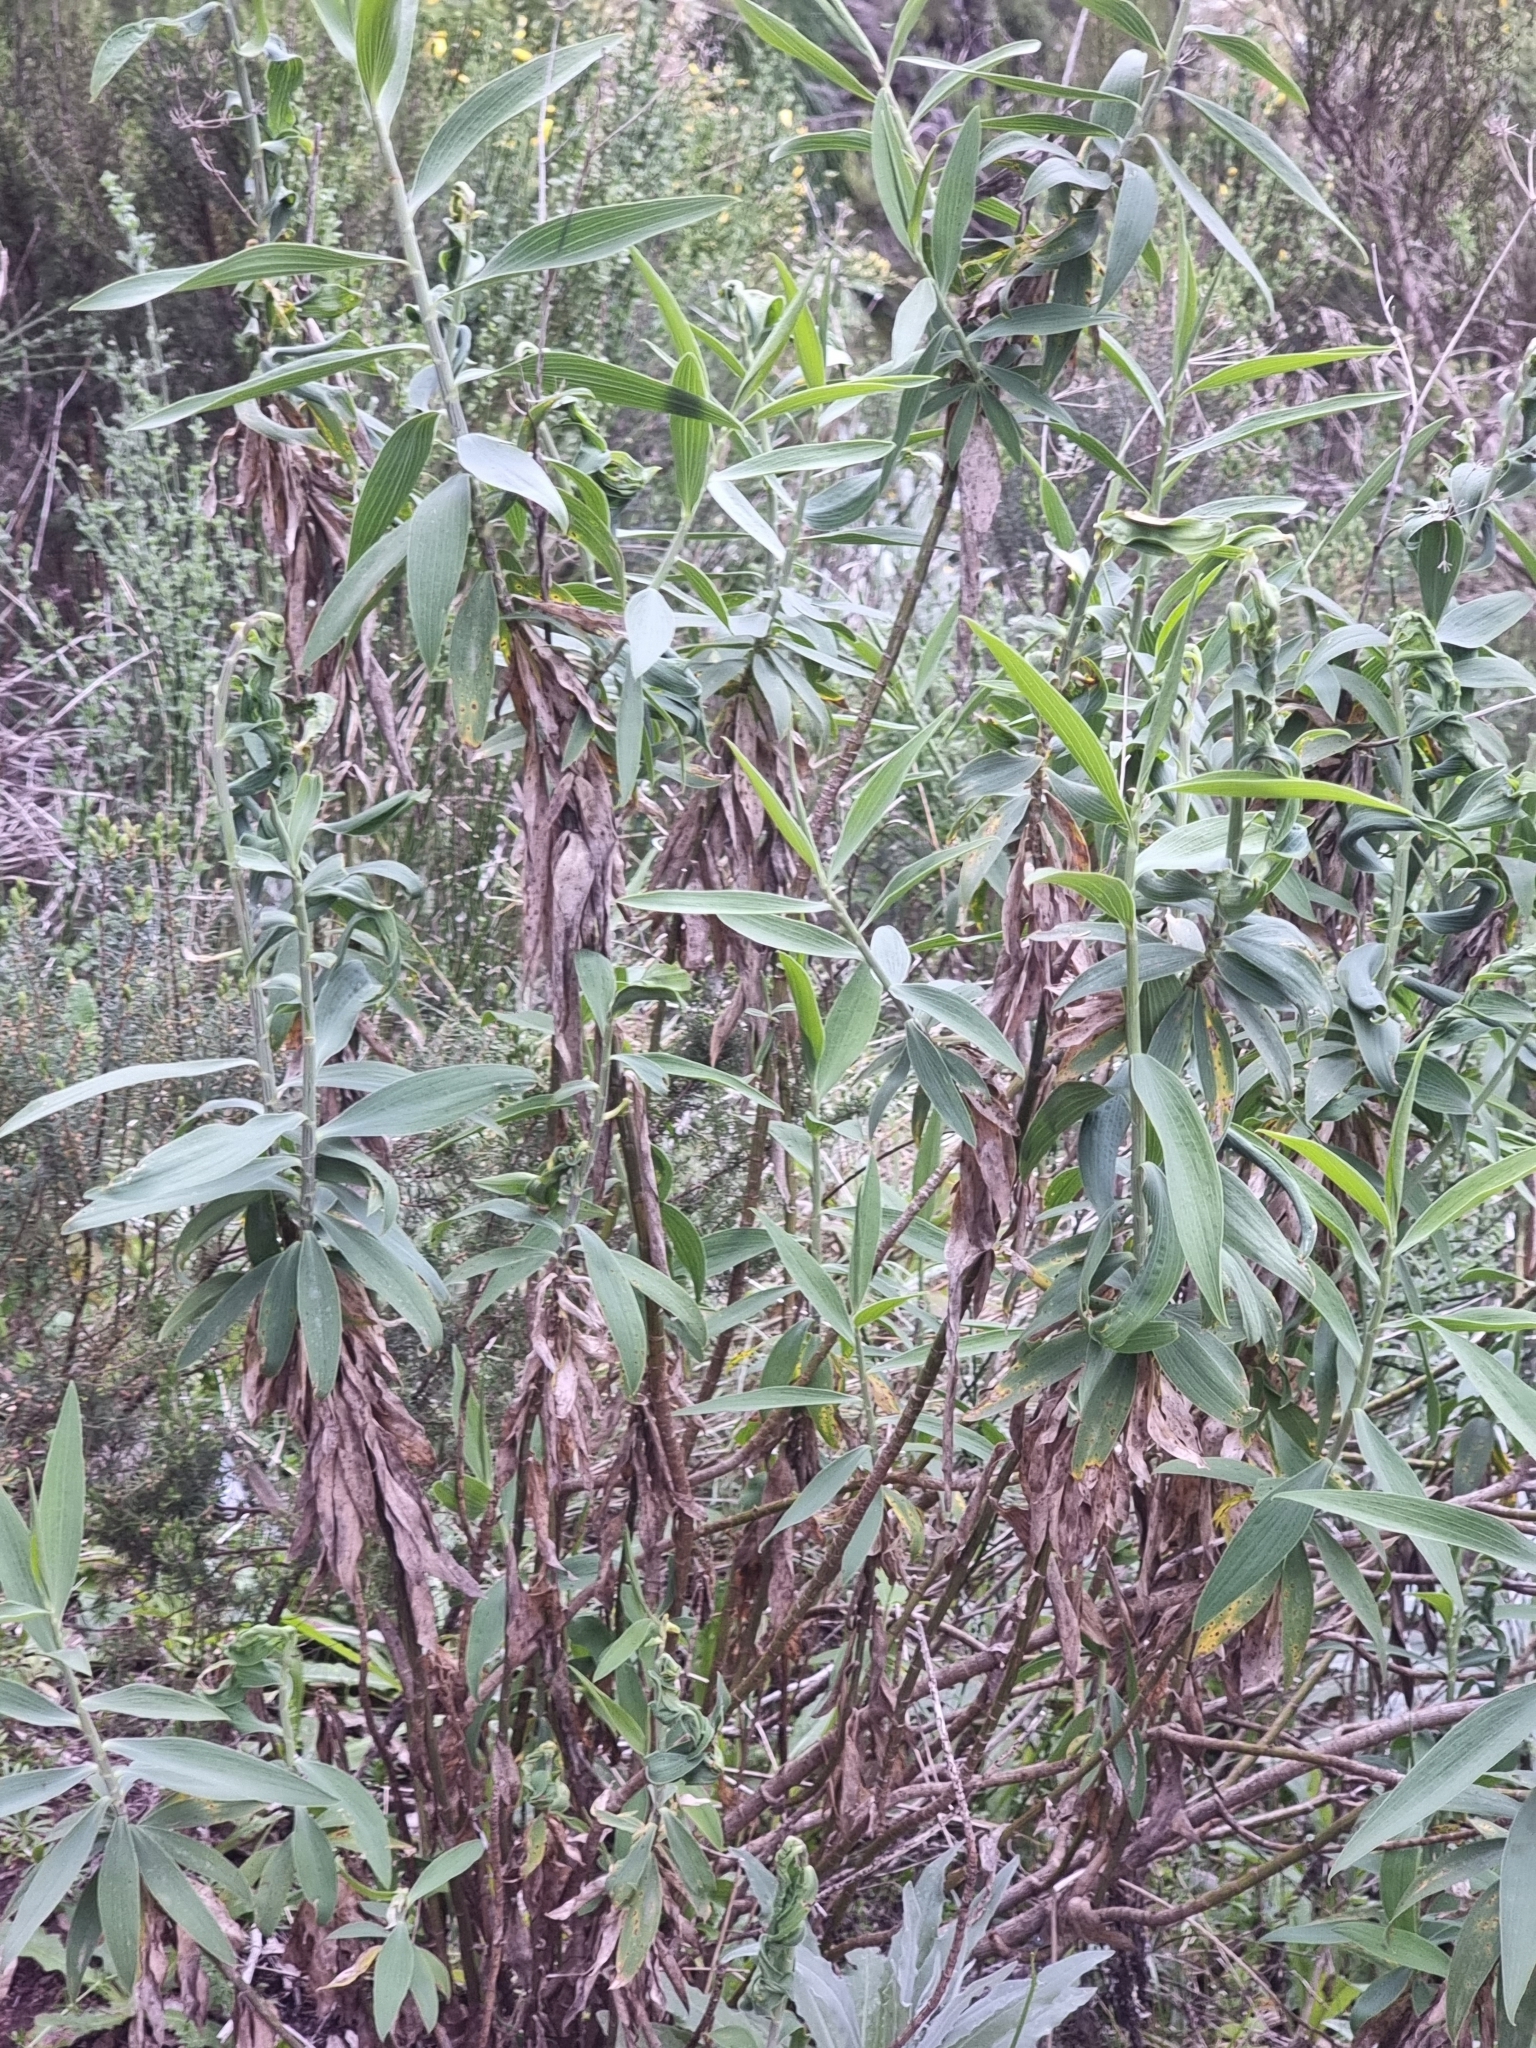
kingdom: Plantae
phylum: Tracheophyta
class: Magnoliopsida
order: Apiales
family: Apiaceae
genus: Bupleurum
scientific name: Bupleurum salicifolium
